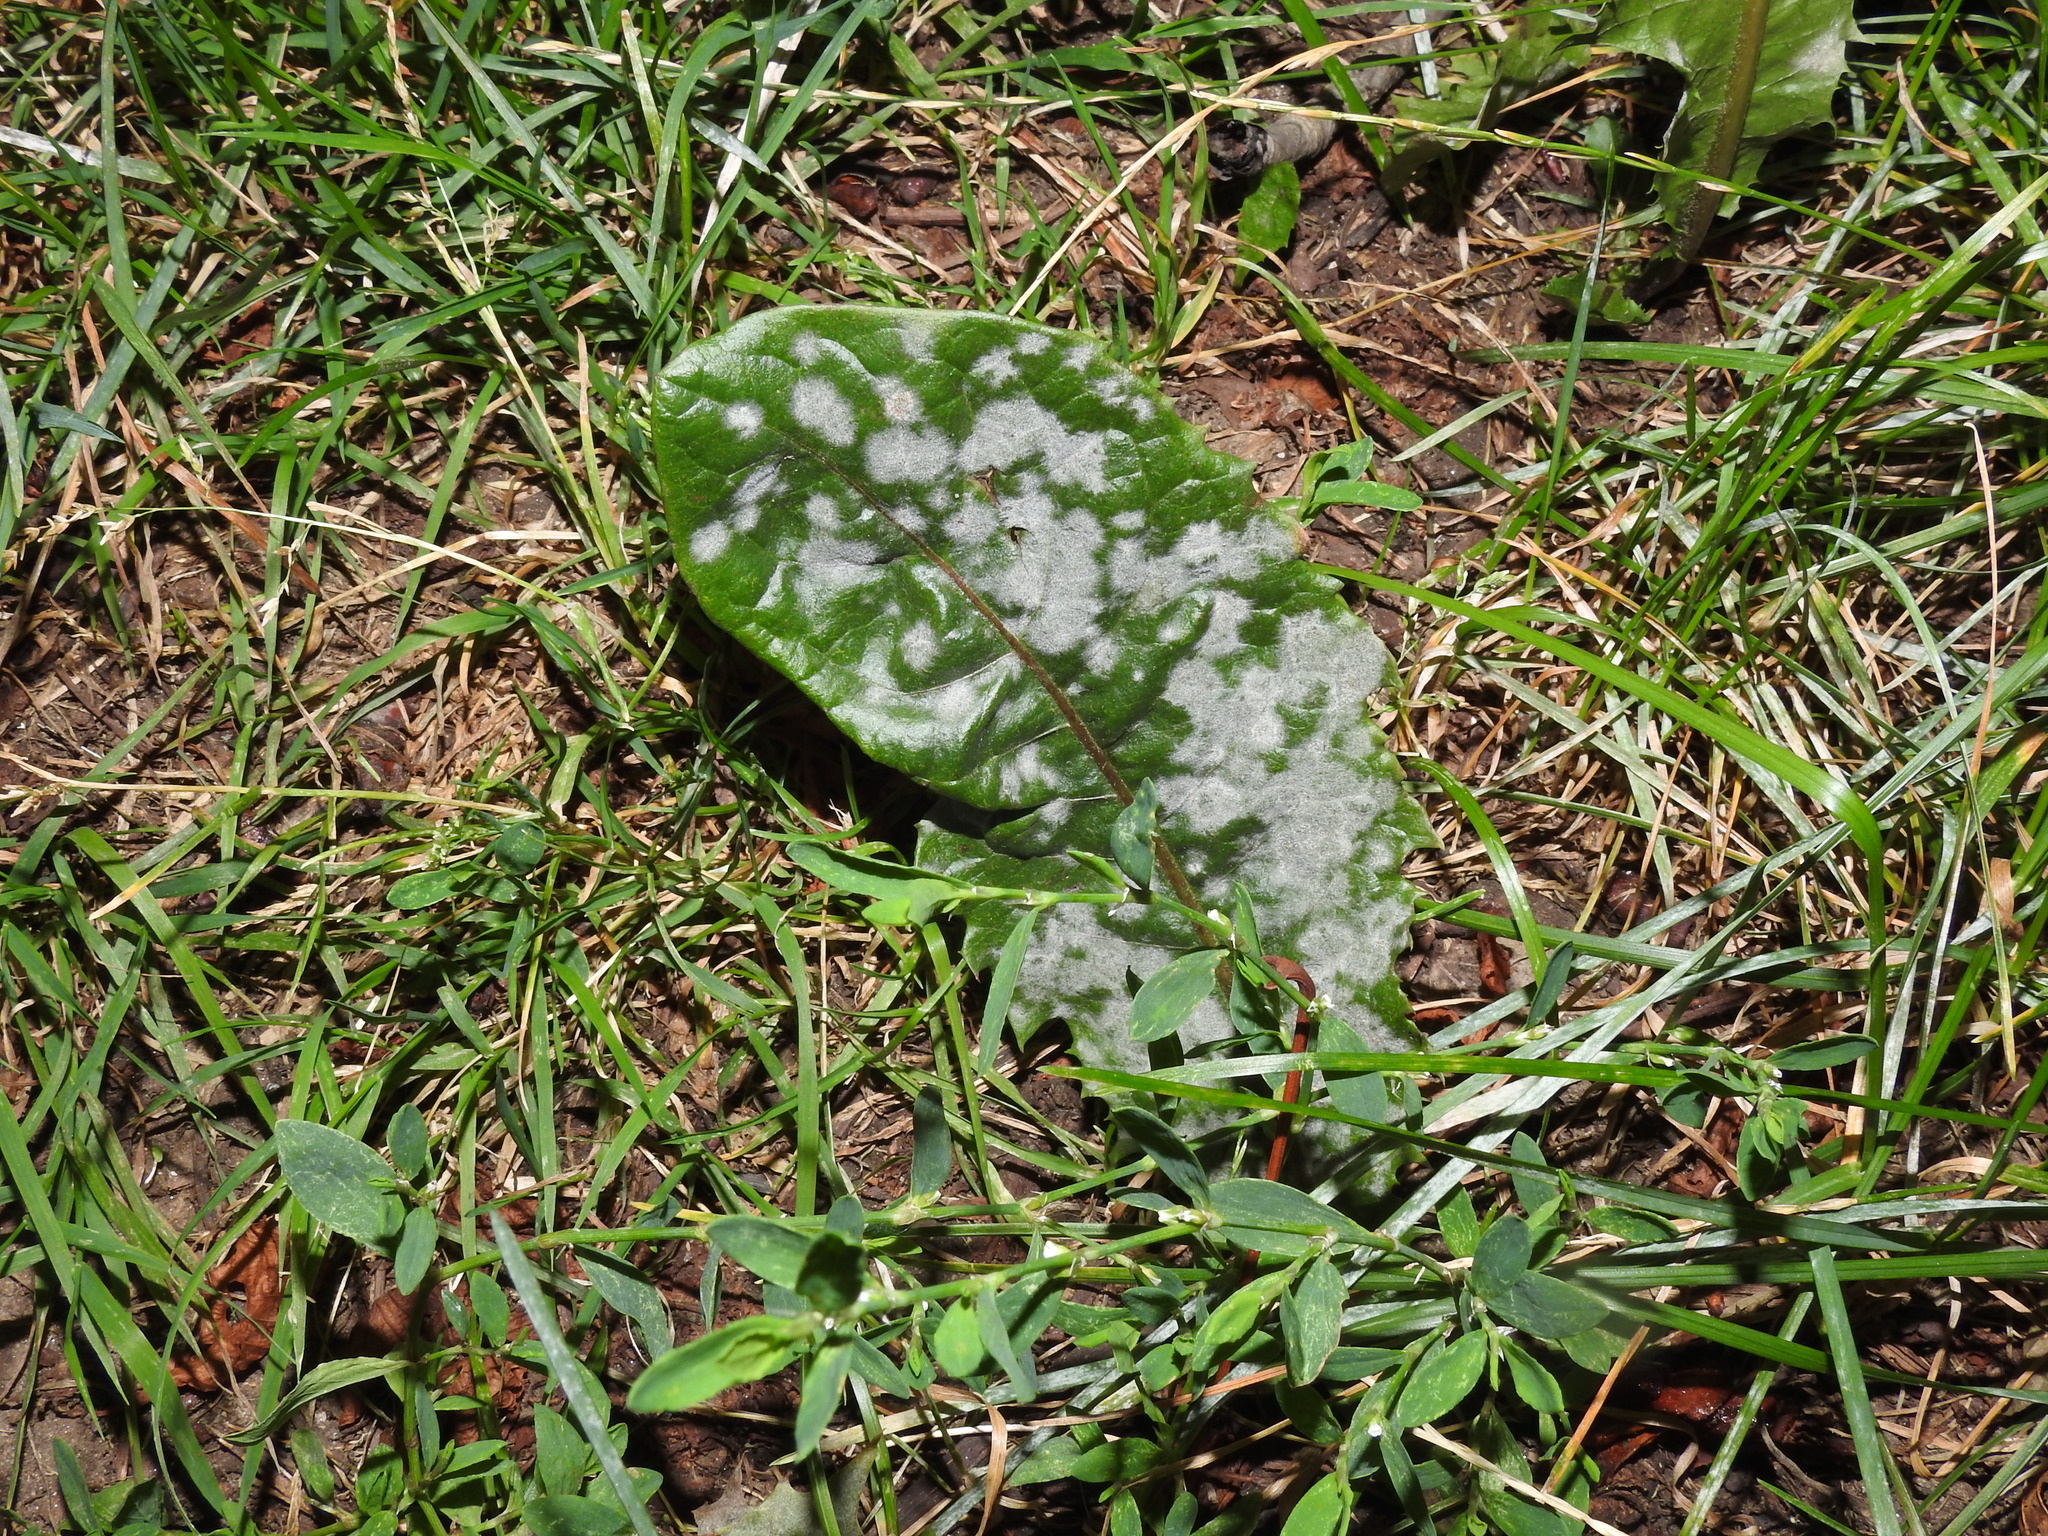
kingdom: Fungi
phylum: Ascomycota
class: Leotiomycetes
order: Helotiales
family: Erysiphaceae
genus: Podosphaera
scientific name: Podosphaera erigerontis-canadensis
